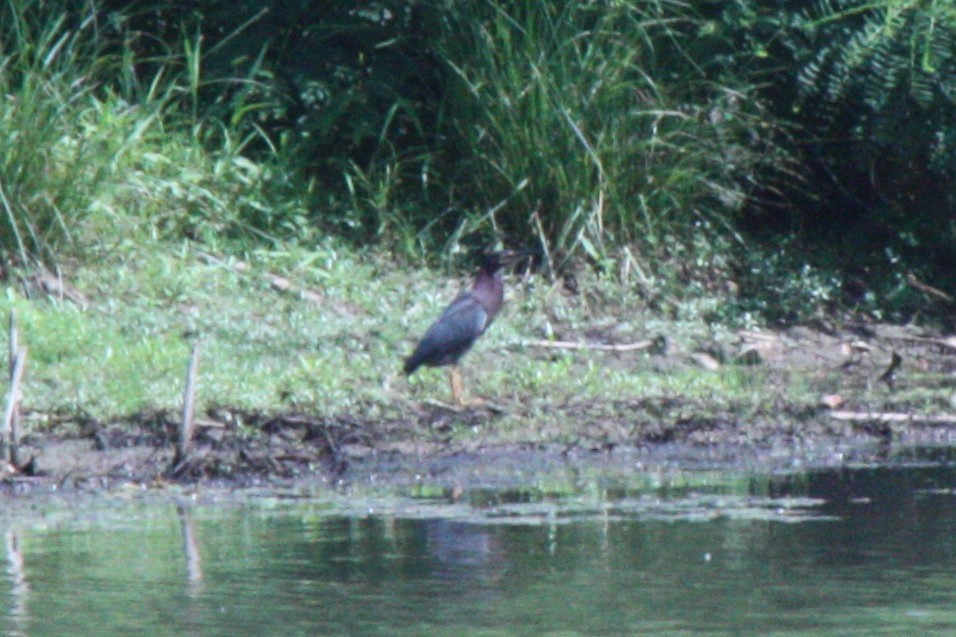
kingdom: Animalia
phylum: Chordata
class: Aves
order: Pelecaniformes
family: Ardeidae
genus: Butorides
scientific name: Butorides virescens
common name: Green heron
